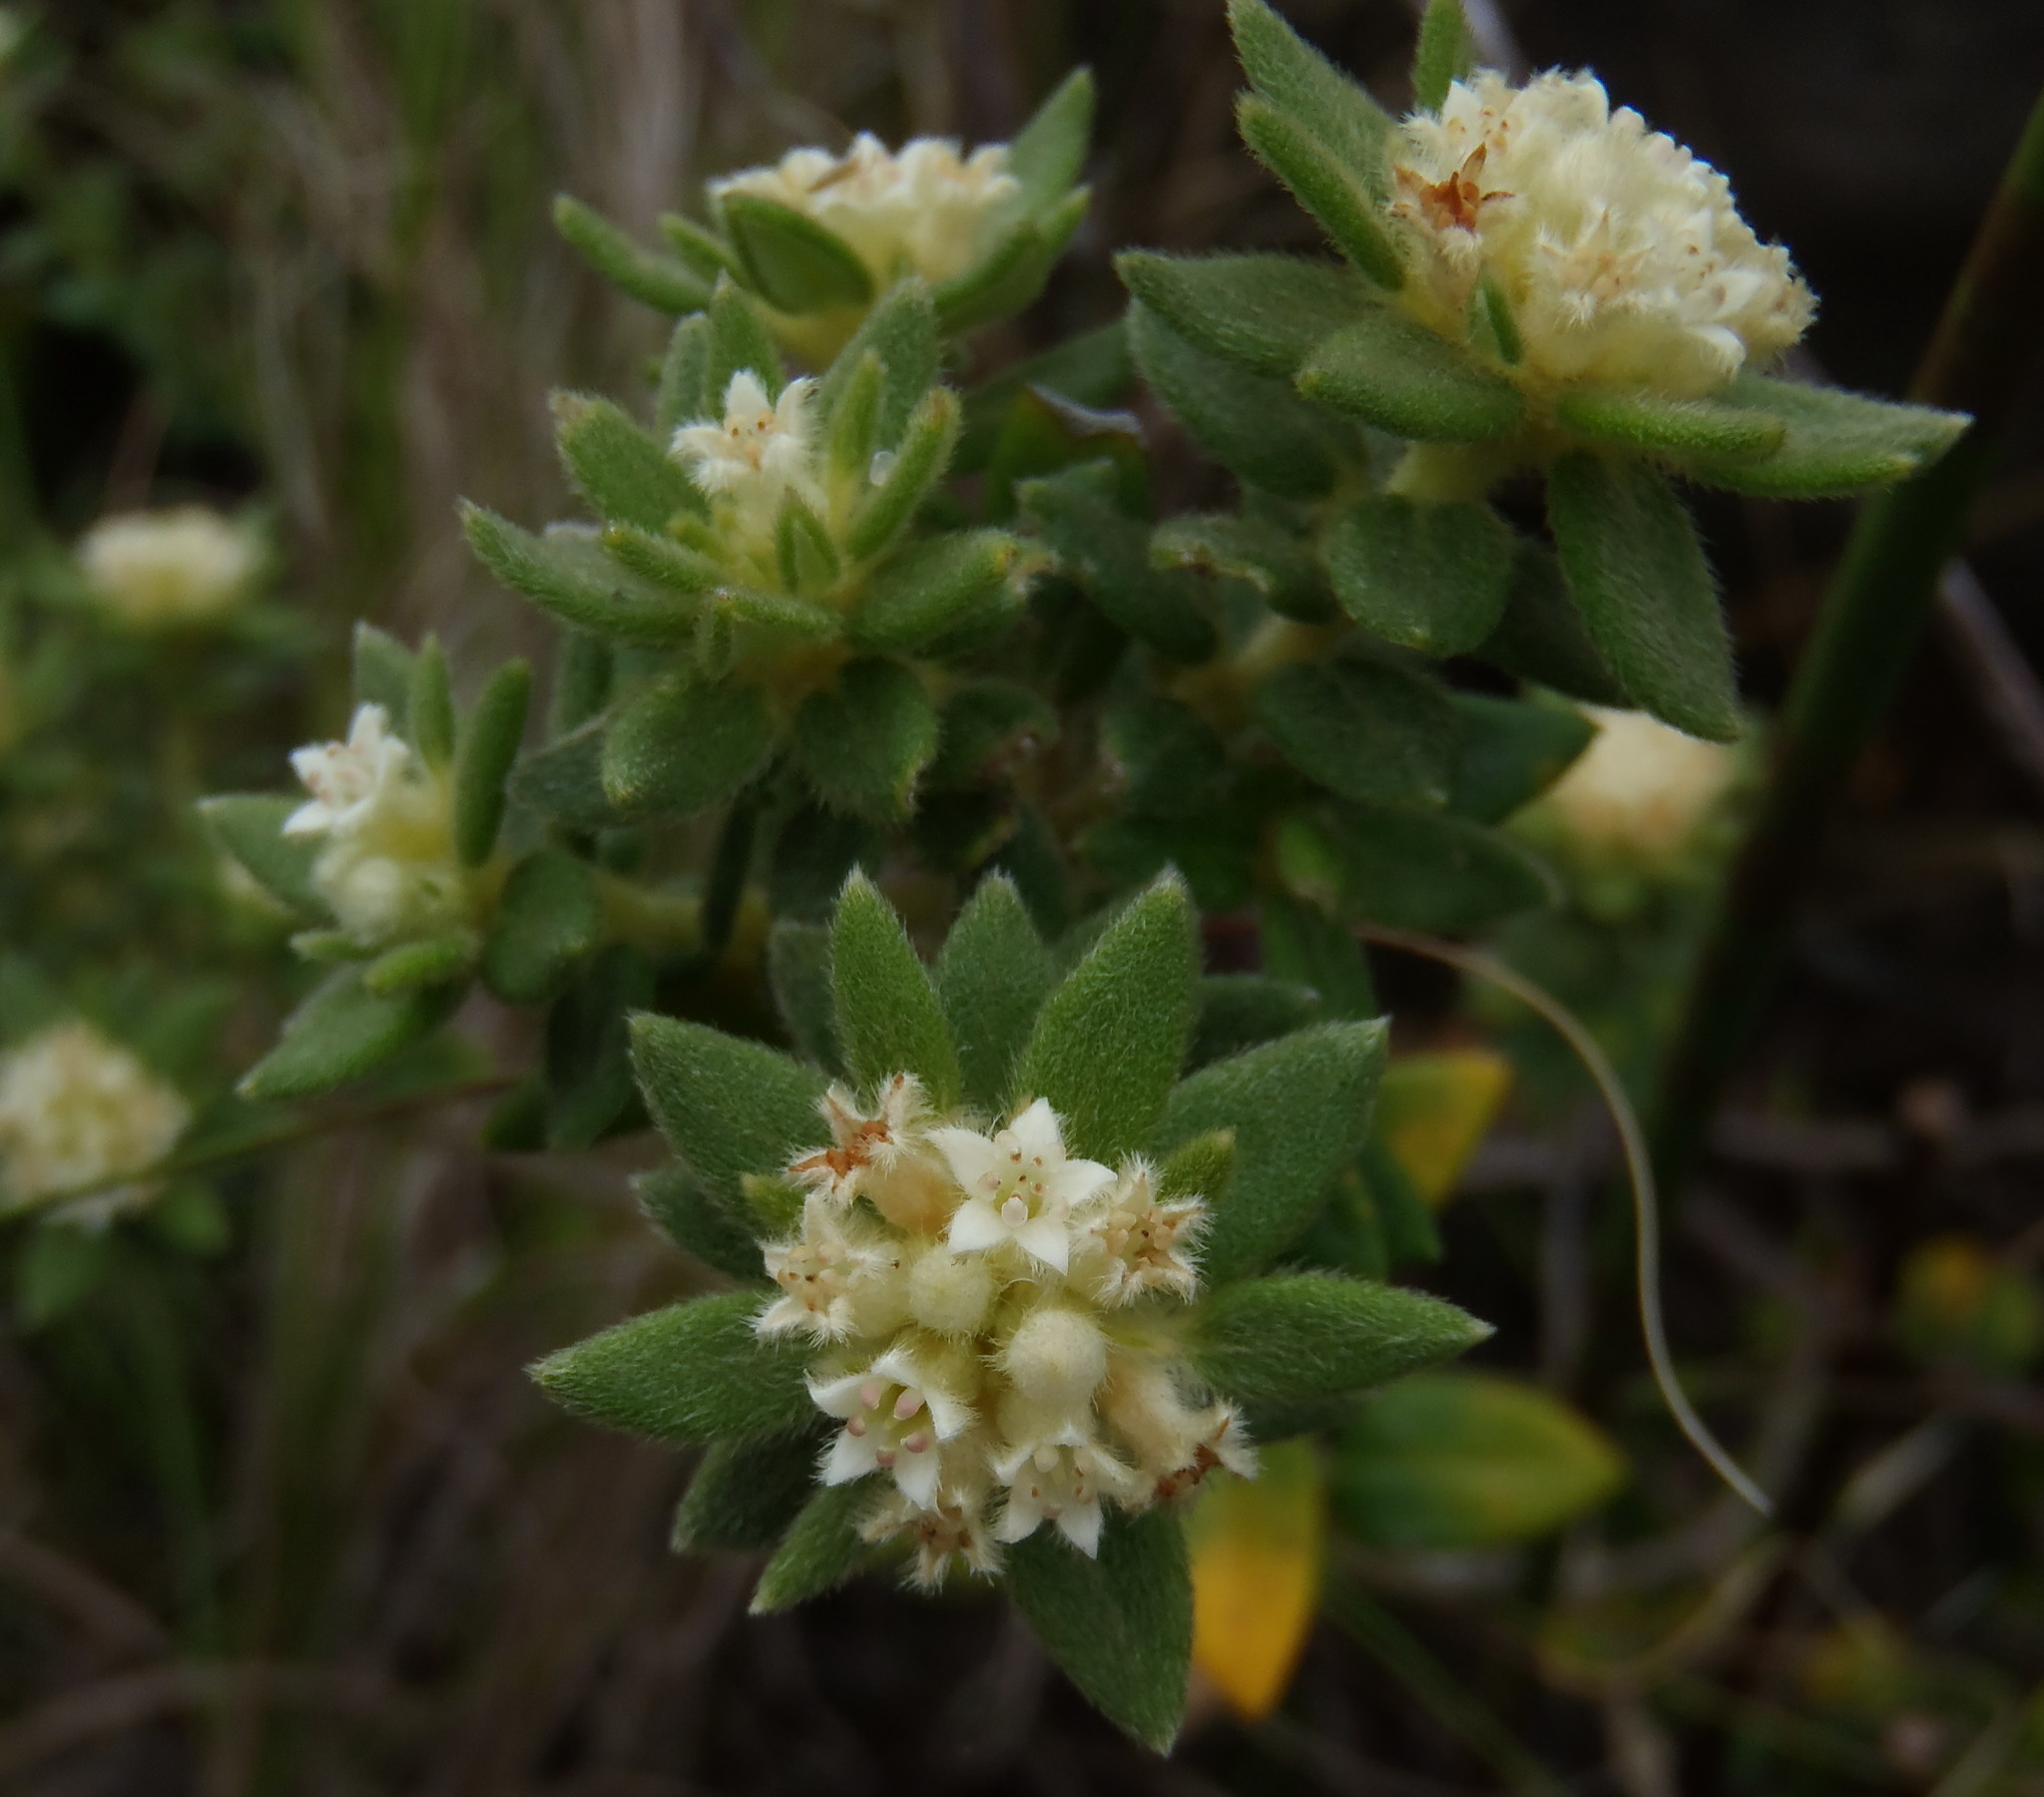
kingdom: Plantae
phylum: Tracheophyta
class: Magnoliopsida
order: Rosales
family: Rhamnaceae
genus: Phylica
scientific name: Phylica dioica
